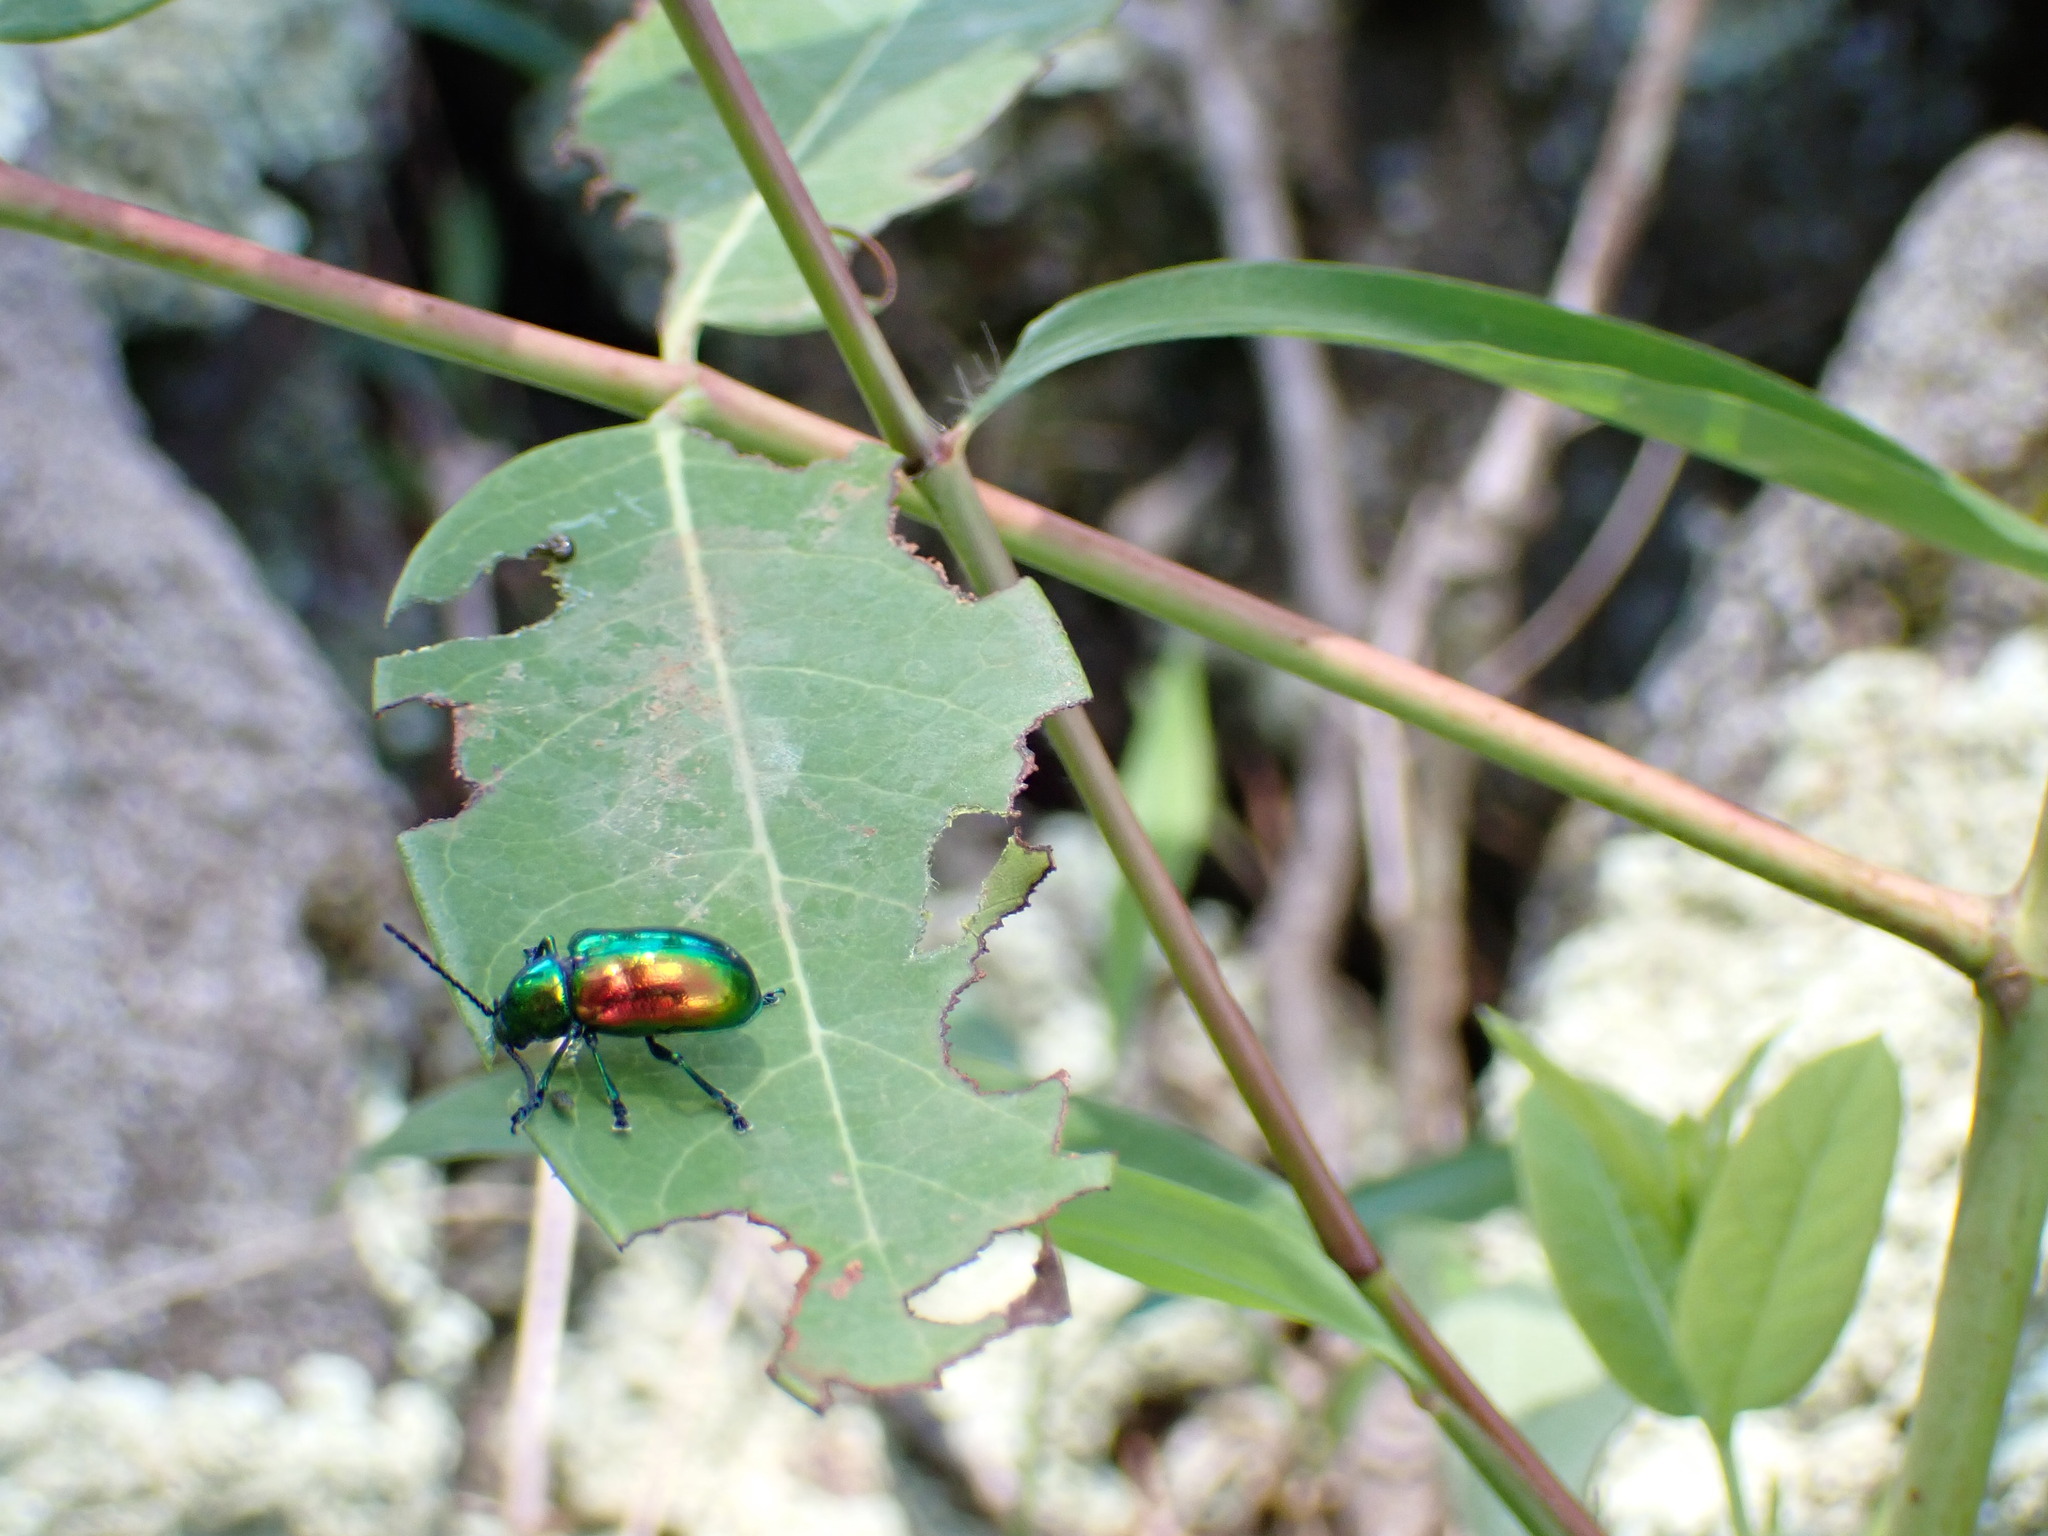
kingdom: Animalia
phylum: Arthropoda
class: Insecta
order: Coleoptera
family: Chrysomelidae
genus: Chrysochus
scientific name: Chrysochus auratus
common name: Dogbane leaf beetle
